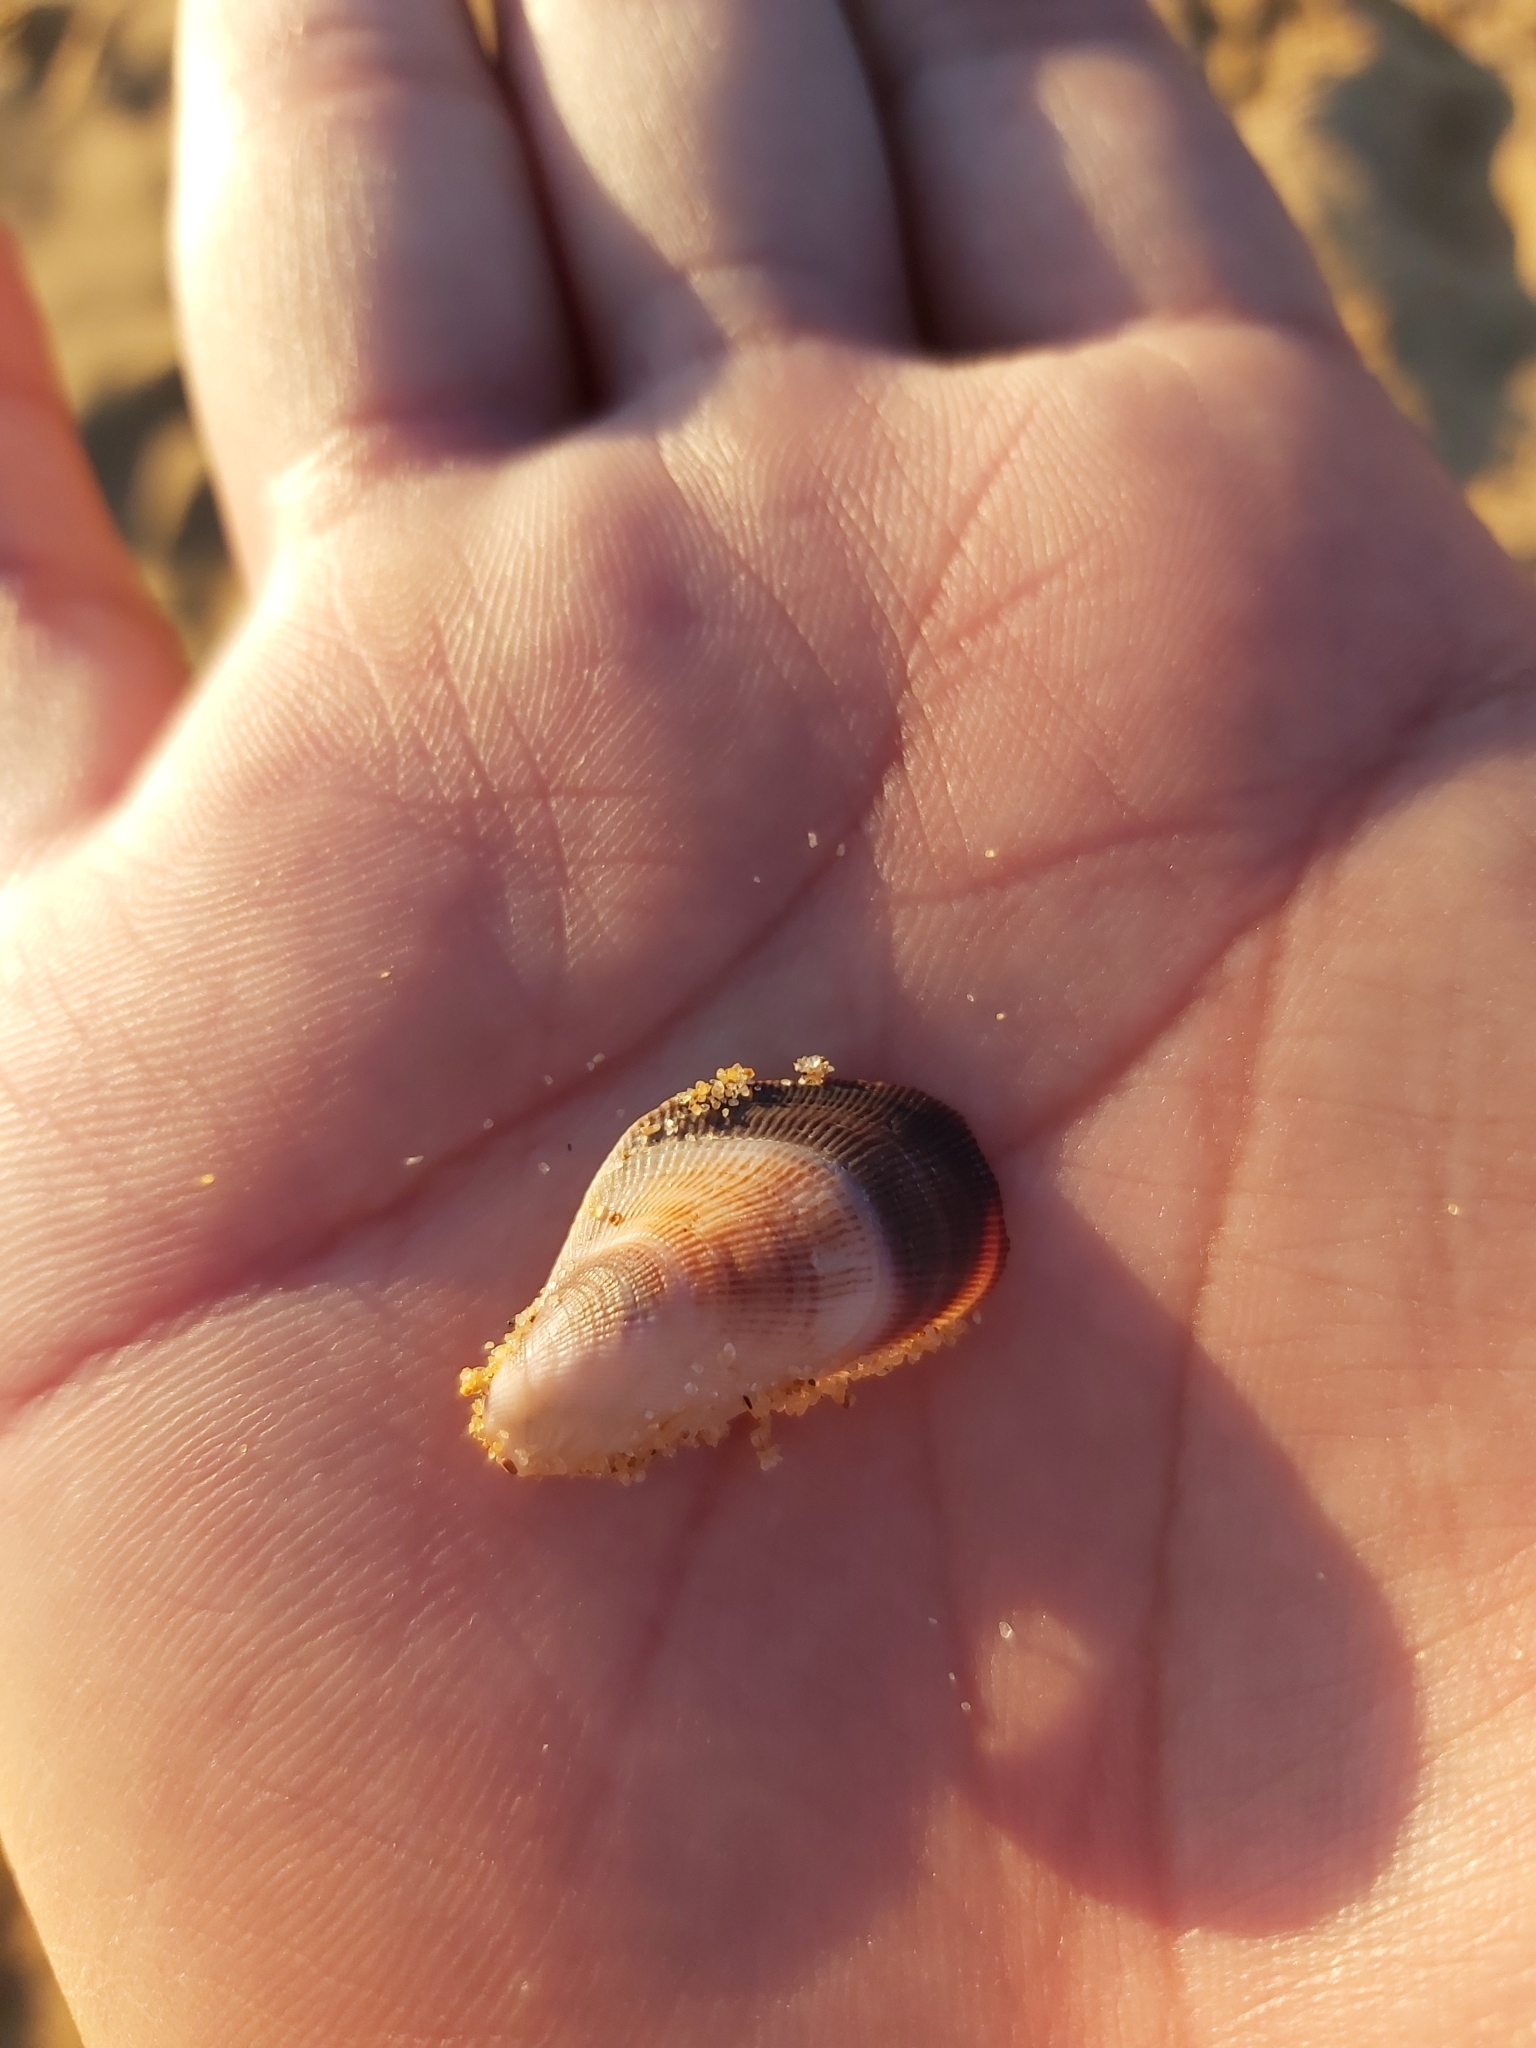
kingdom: Animalia
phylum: Mollusca
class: Bivalvia
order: Mytilida
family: Mytilidae
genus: Trichomya
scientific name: Trichomya hirsuta
